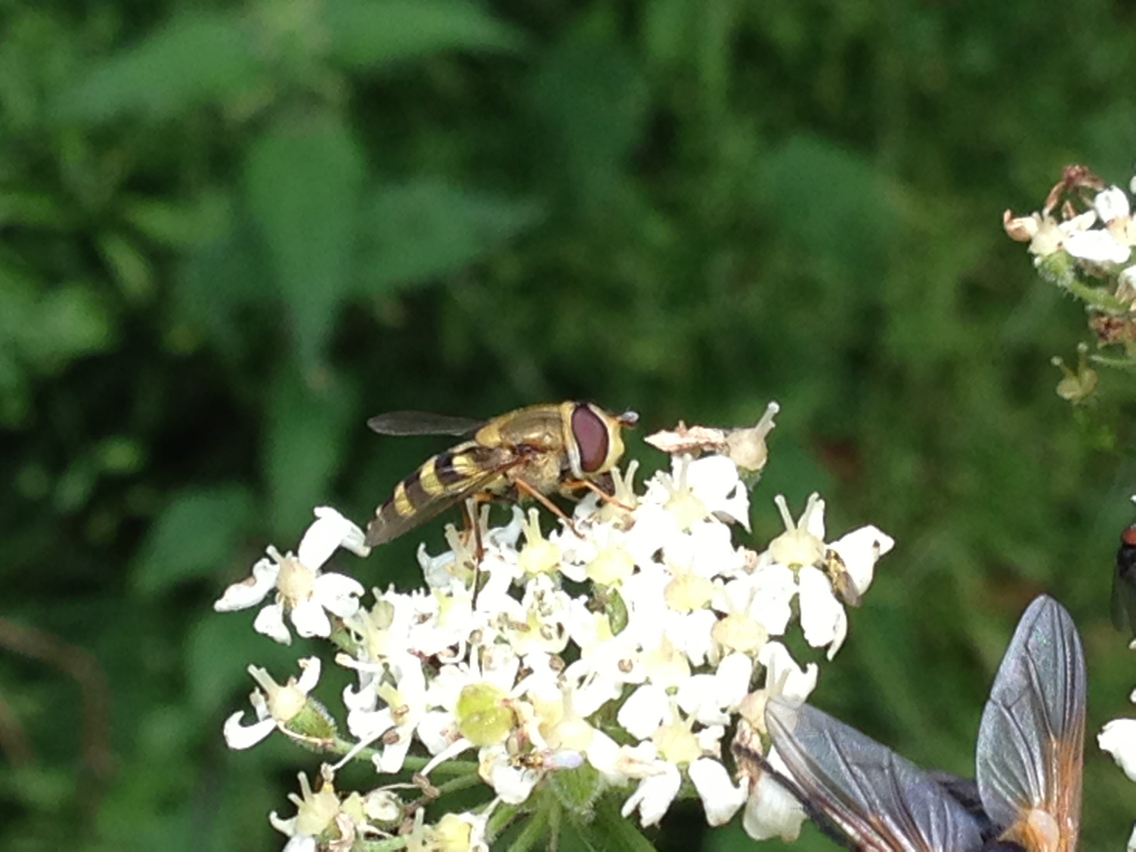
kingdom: Animalia
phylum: Arthropoda
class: Insecta
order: Diptera
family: Syrphidae
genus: Syrphus
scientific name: Syrphus
